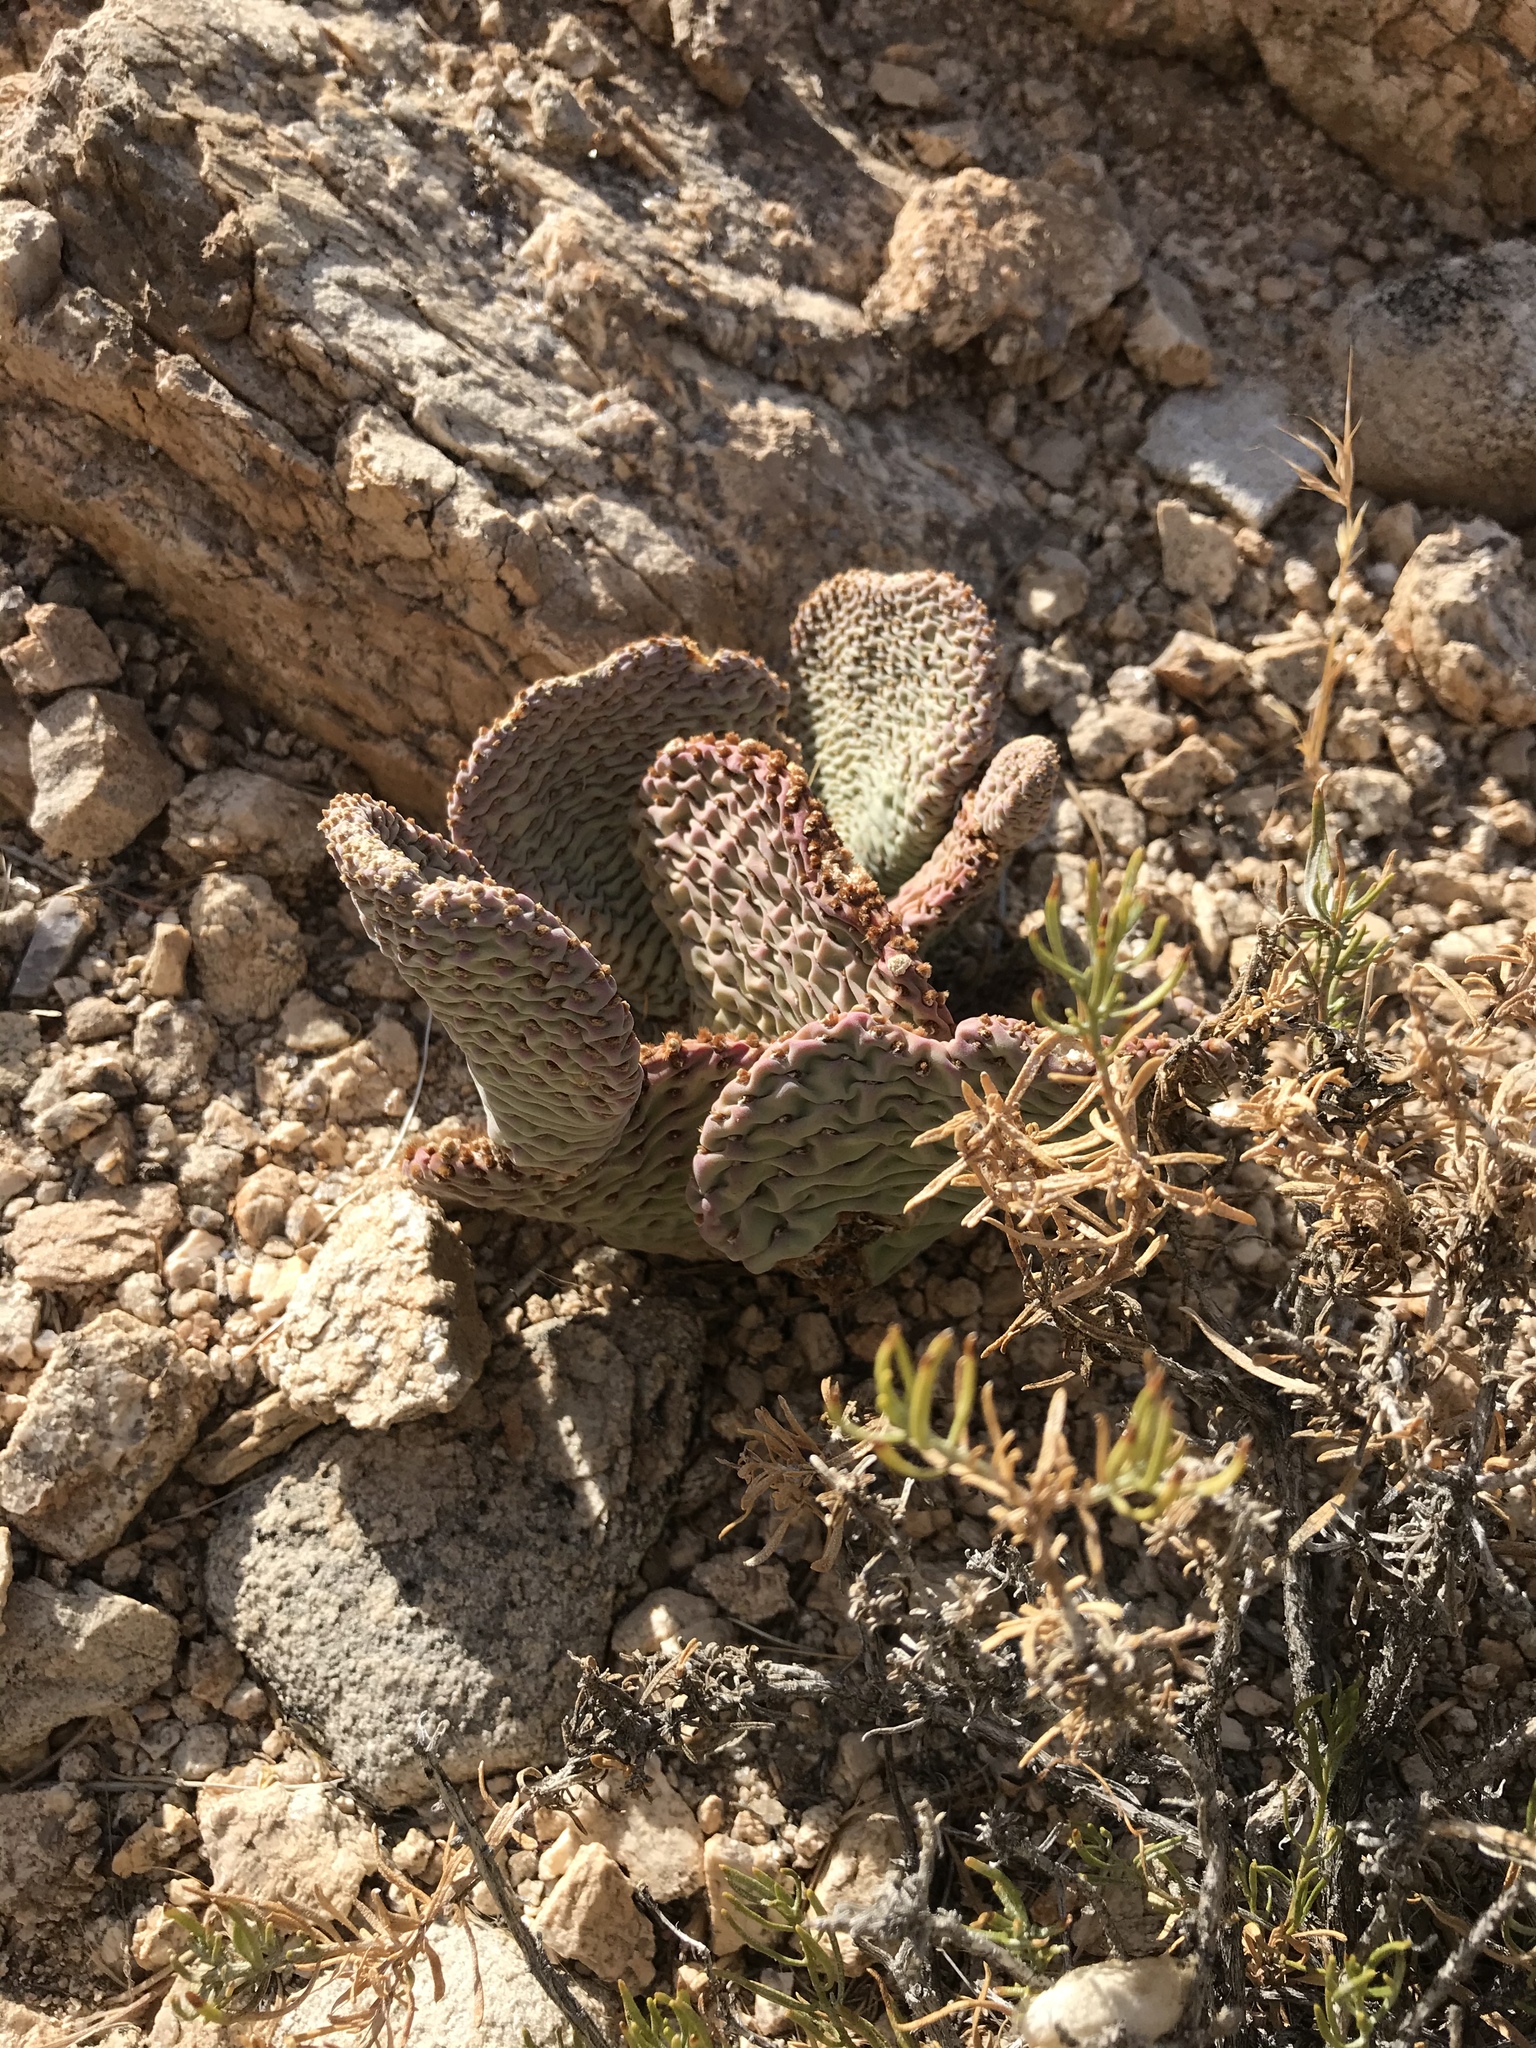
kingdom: Plantae
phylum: Tracheophyta
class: Magnoliopsida
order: Caryophyllales
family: Cactaceae
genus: Opuntia
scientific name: Opuntia basilaris
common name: Beavertail prickly-pear
